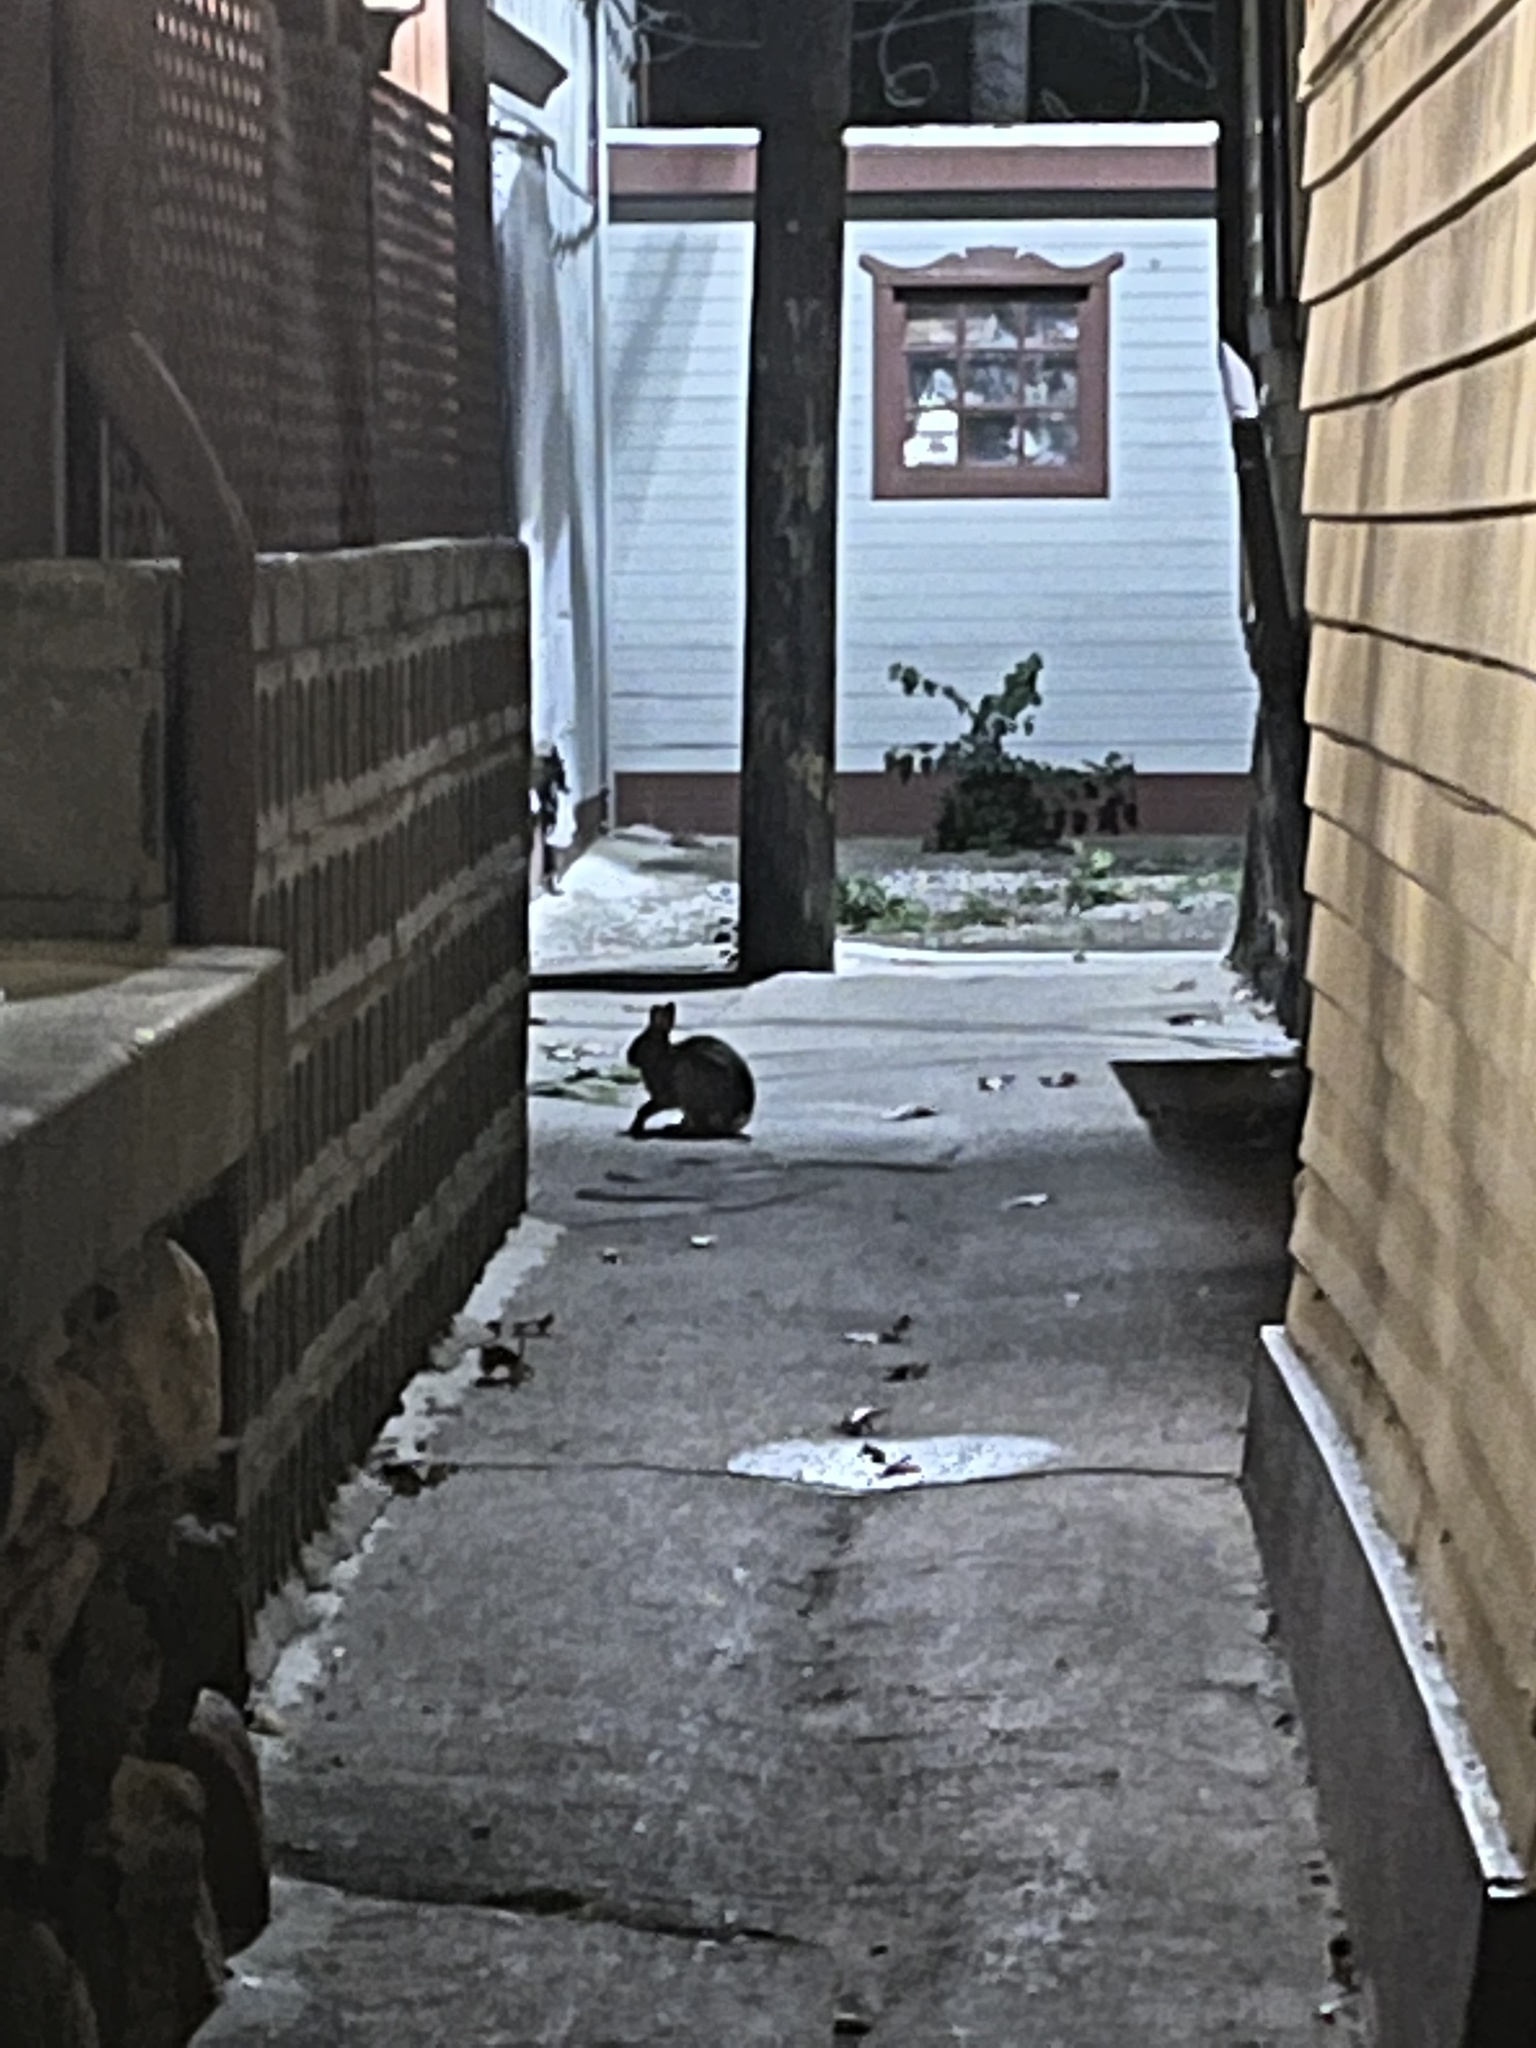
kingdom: Animalia
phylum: Chordata
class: Mammalia
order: Lagomorpha
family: Leporidae
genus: Sylvilagus
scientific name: Sylvilagus floridanus
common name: Eastern cottontail
